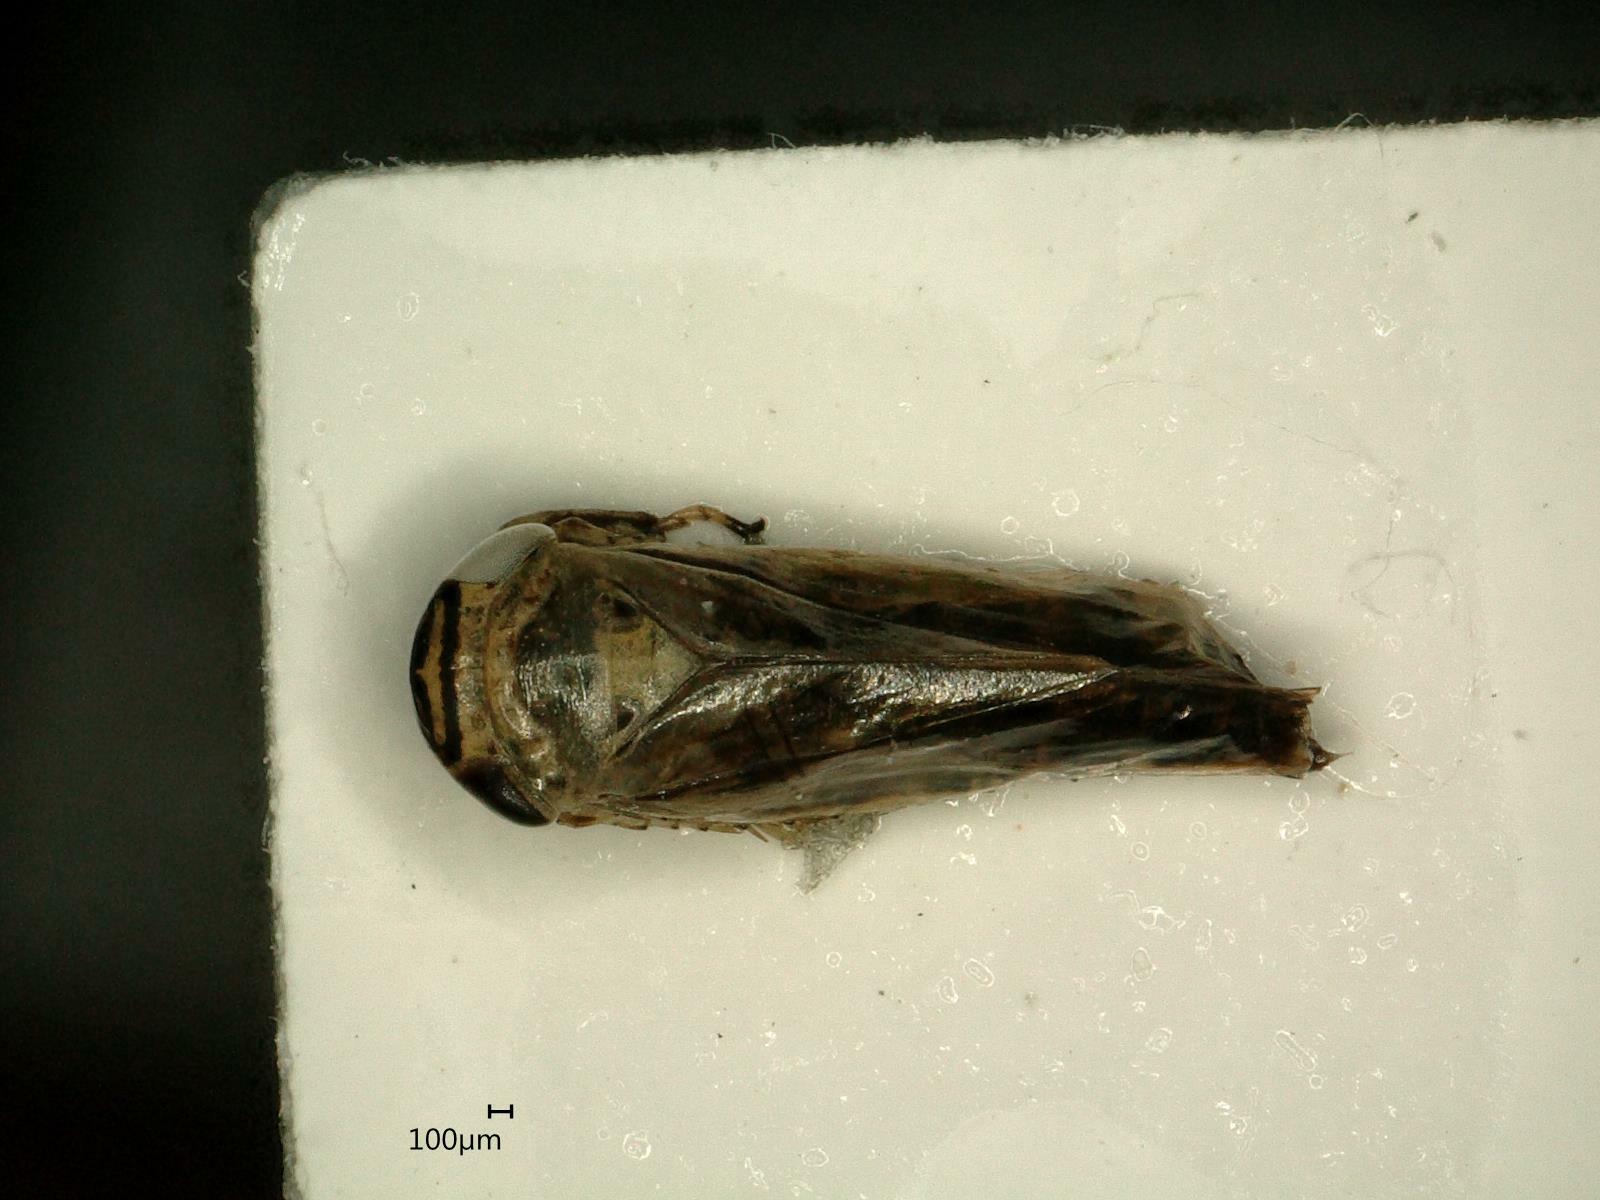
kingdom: Animalia
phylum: Arthropoda
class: Insecta
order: Hemiptera
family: Cicadellidae
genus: Limotettix
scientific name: Limotettix striola
